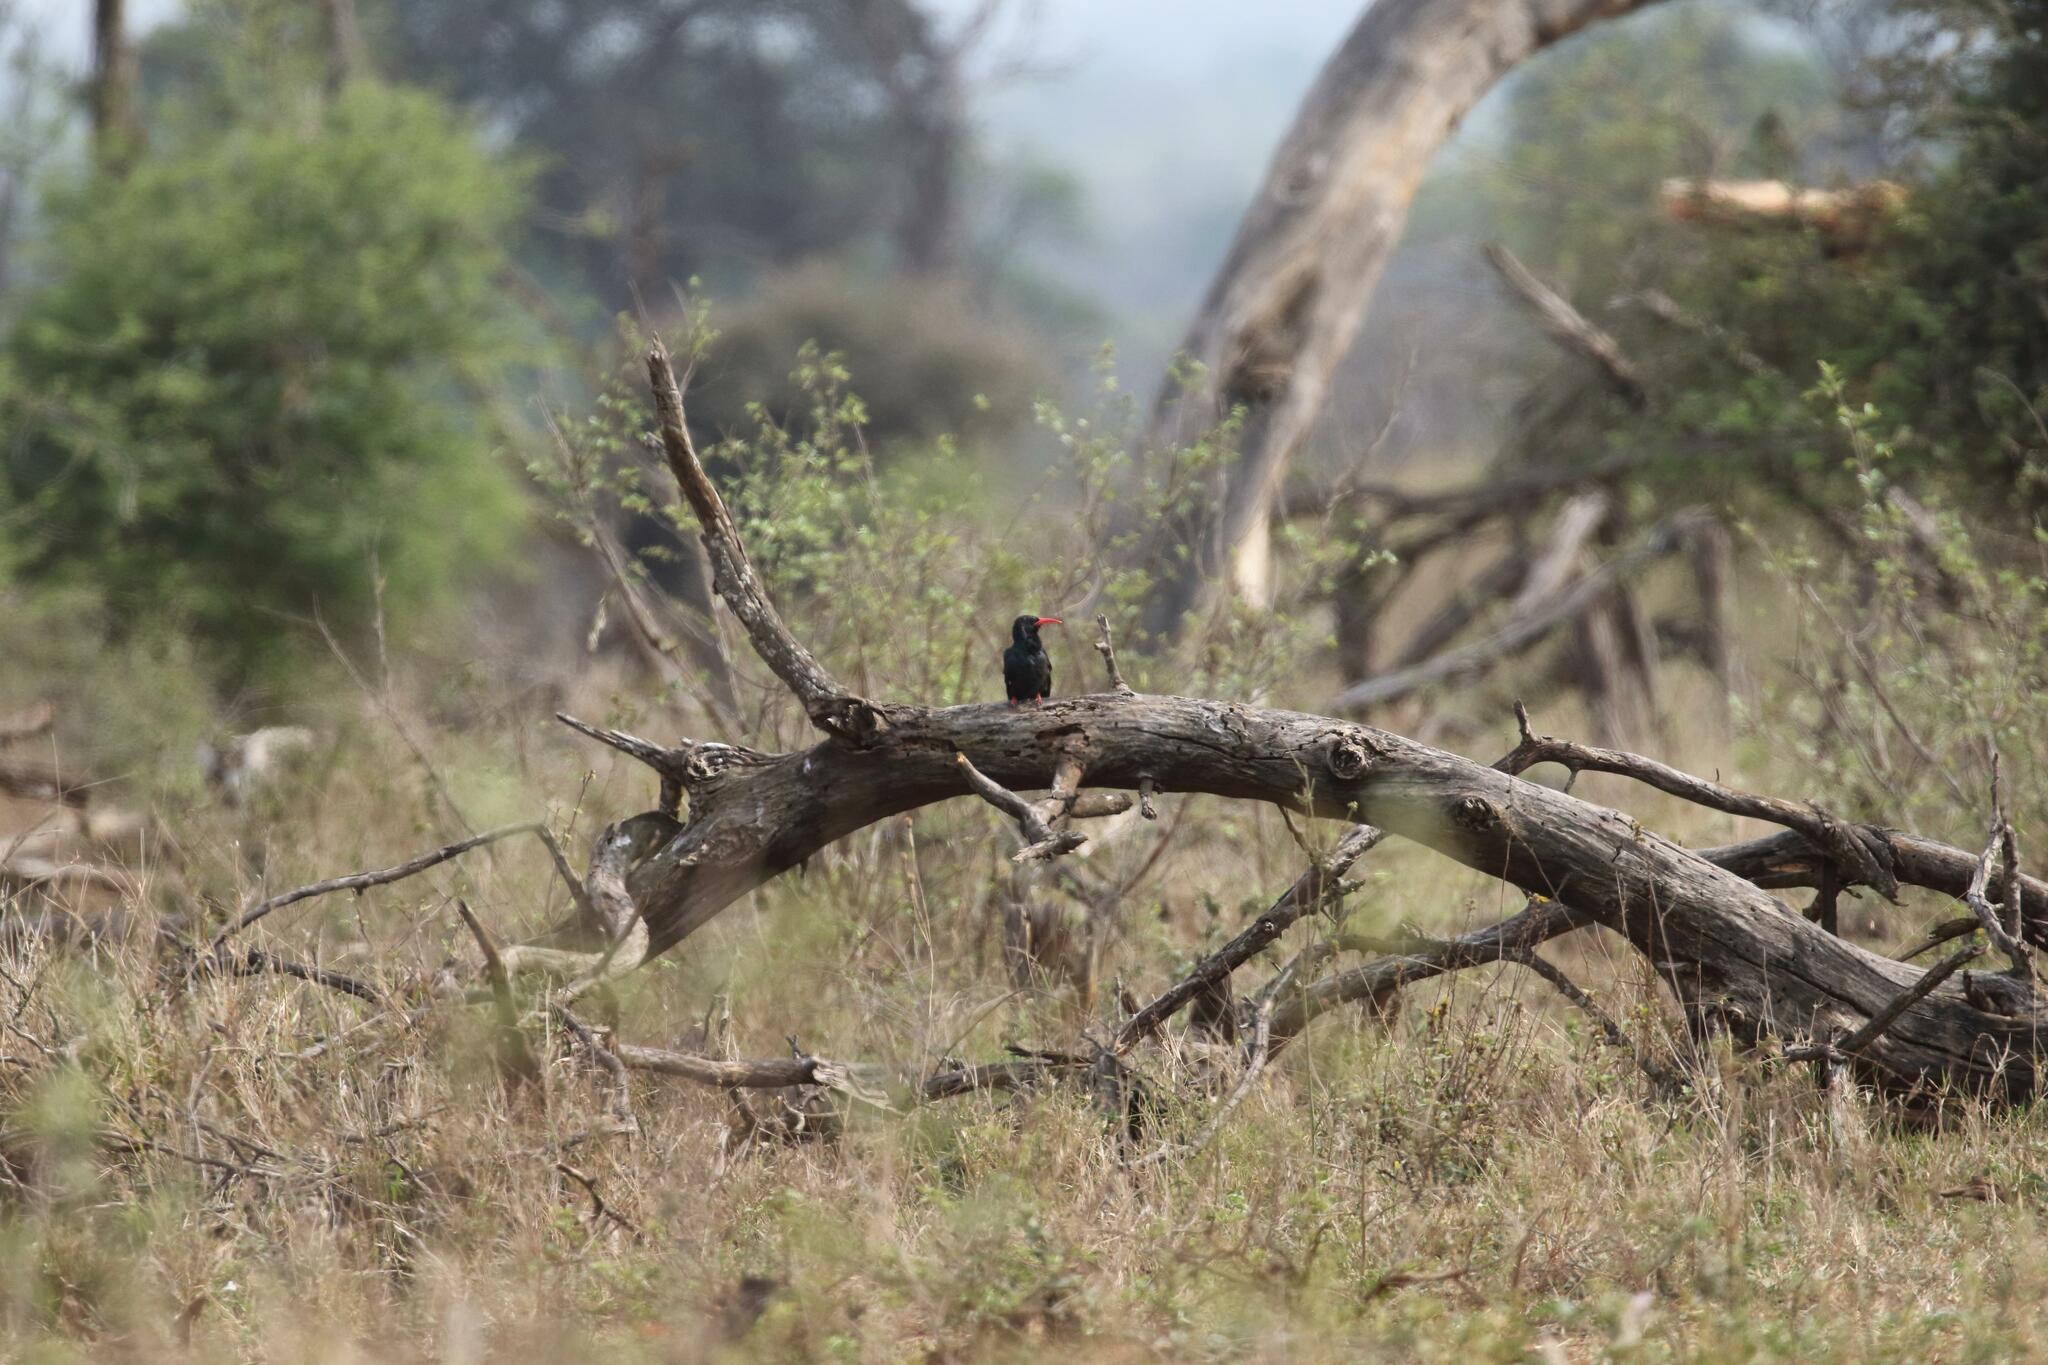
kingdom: Animalia
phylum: Chordata
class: Aves
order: Bucerotiformes
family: Phoeniculidae
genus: Phoeniculus
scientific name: Phoeniculus purpureus
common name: Green woodhoopoe
